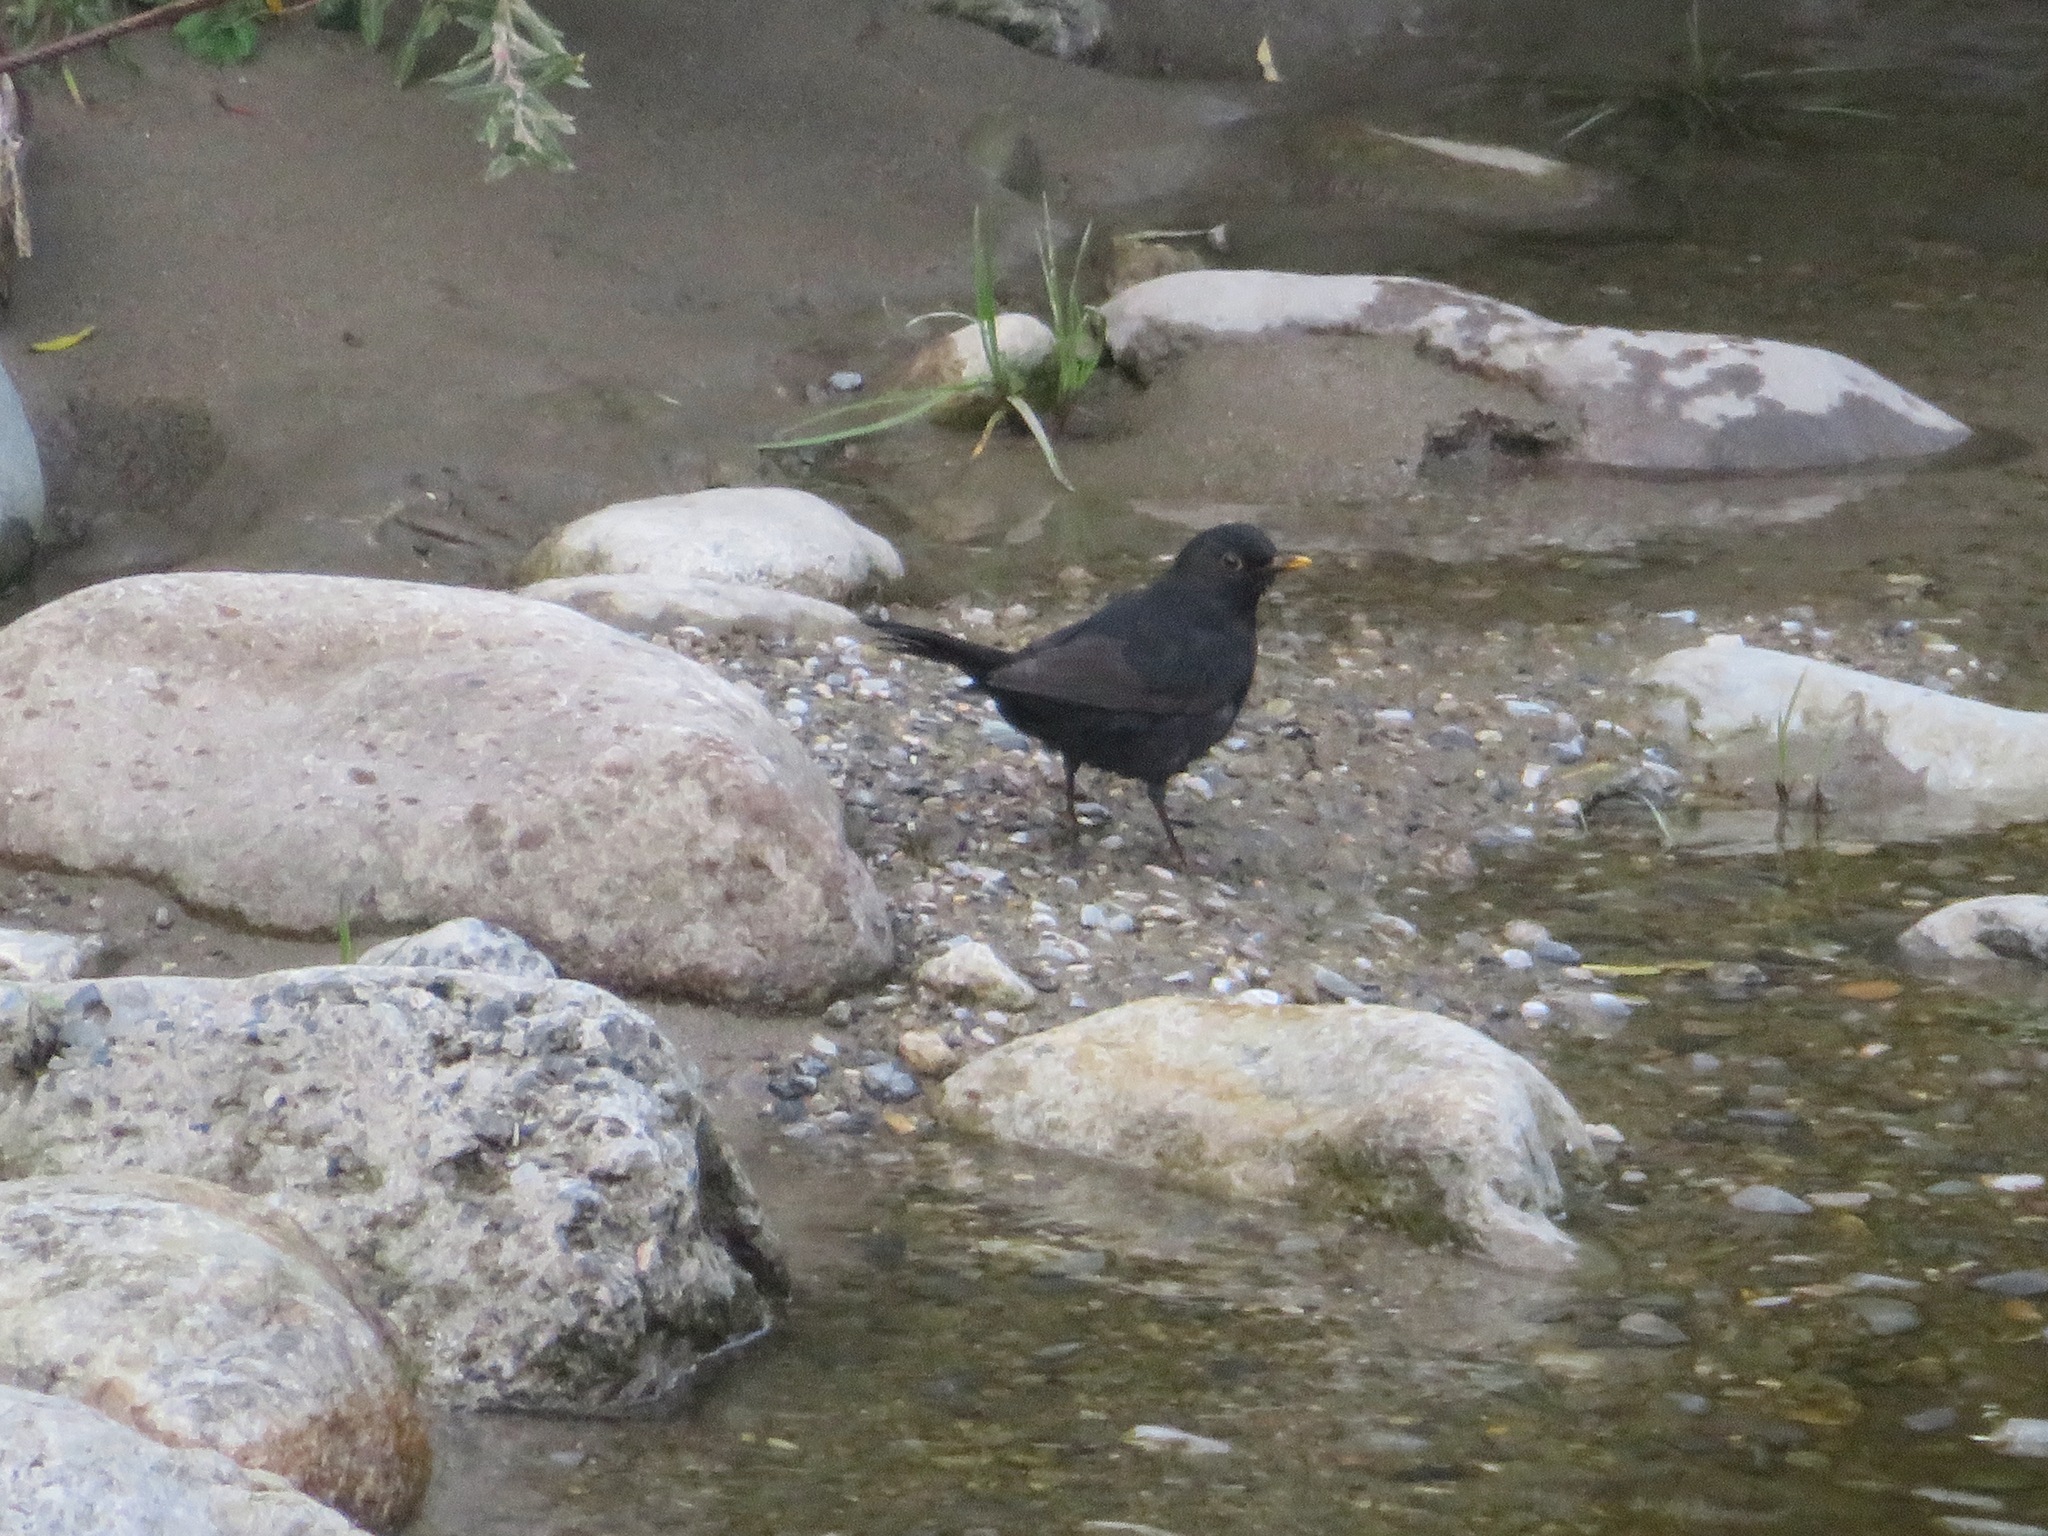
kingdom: Animalia
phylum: Chordata
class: Aves
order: Passeriformes
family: Turdidae
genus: Turdus
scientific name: Turdus merula
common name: Common blackbird
